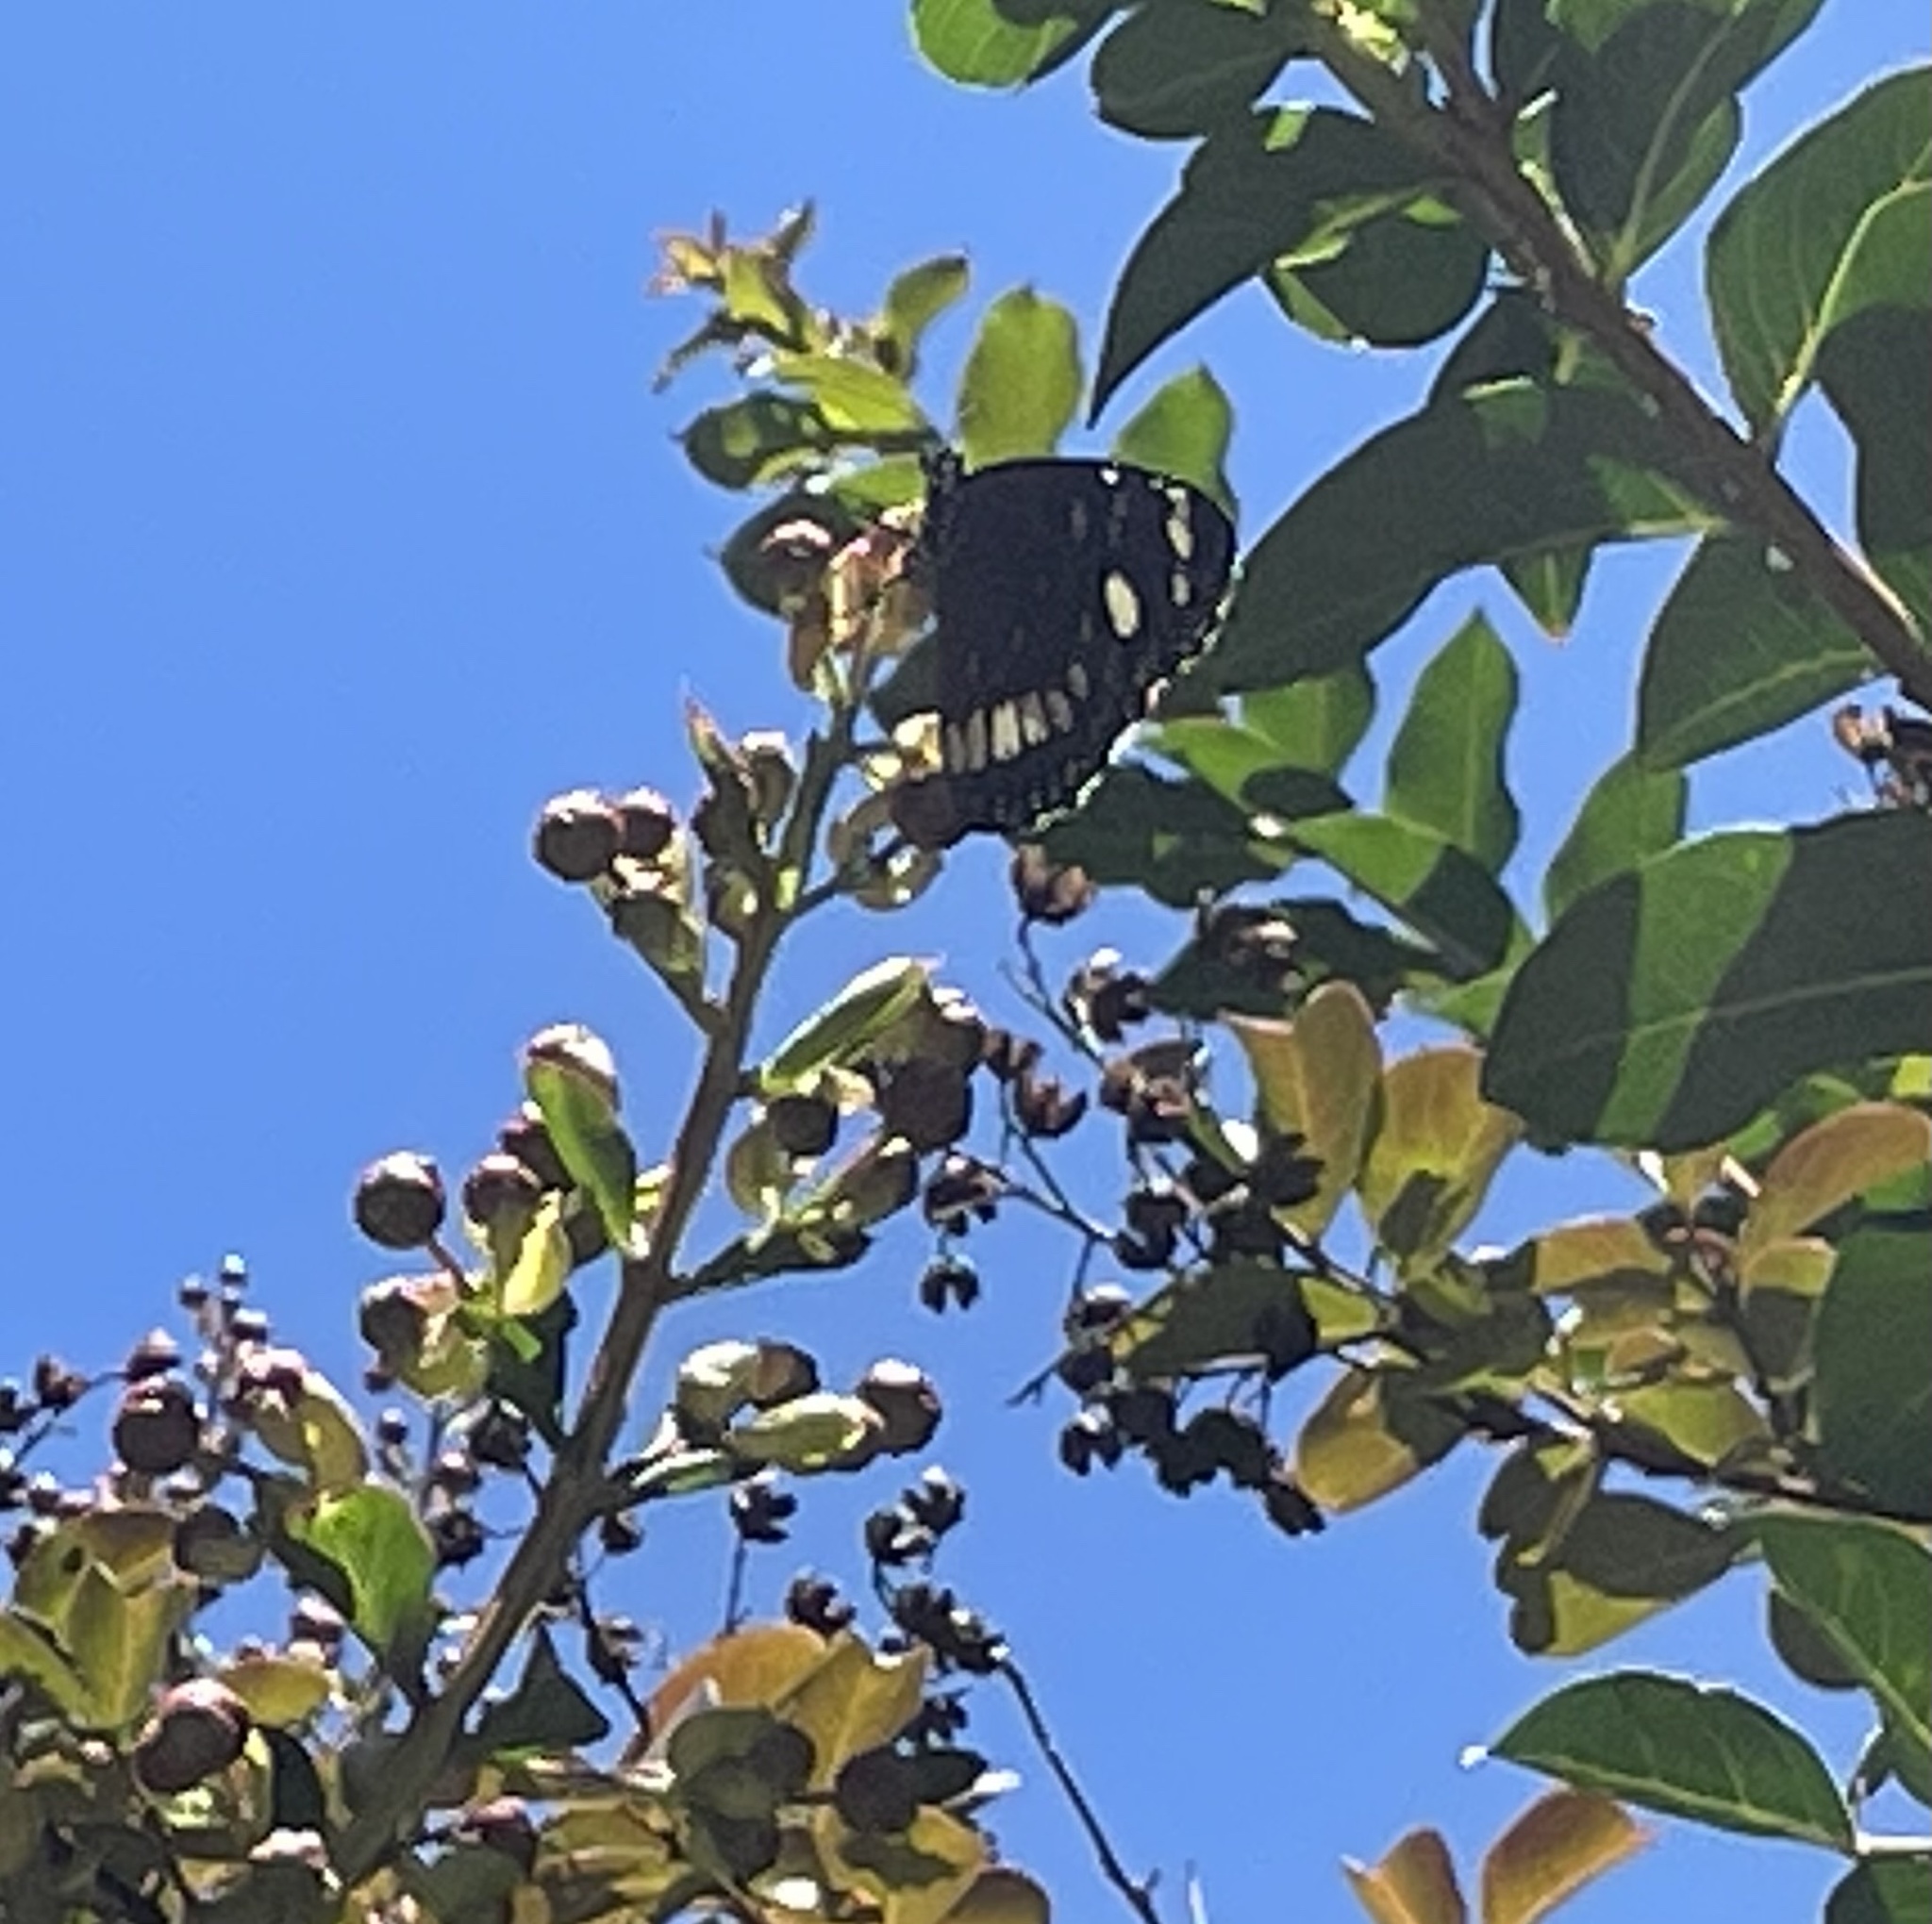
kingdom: Animalia
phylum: Arthropoda
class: Insecta
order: Lepidoptera
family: Nymphalidae
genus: Euploea
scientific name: Euploea core
